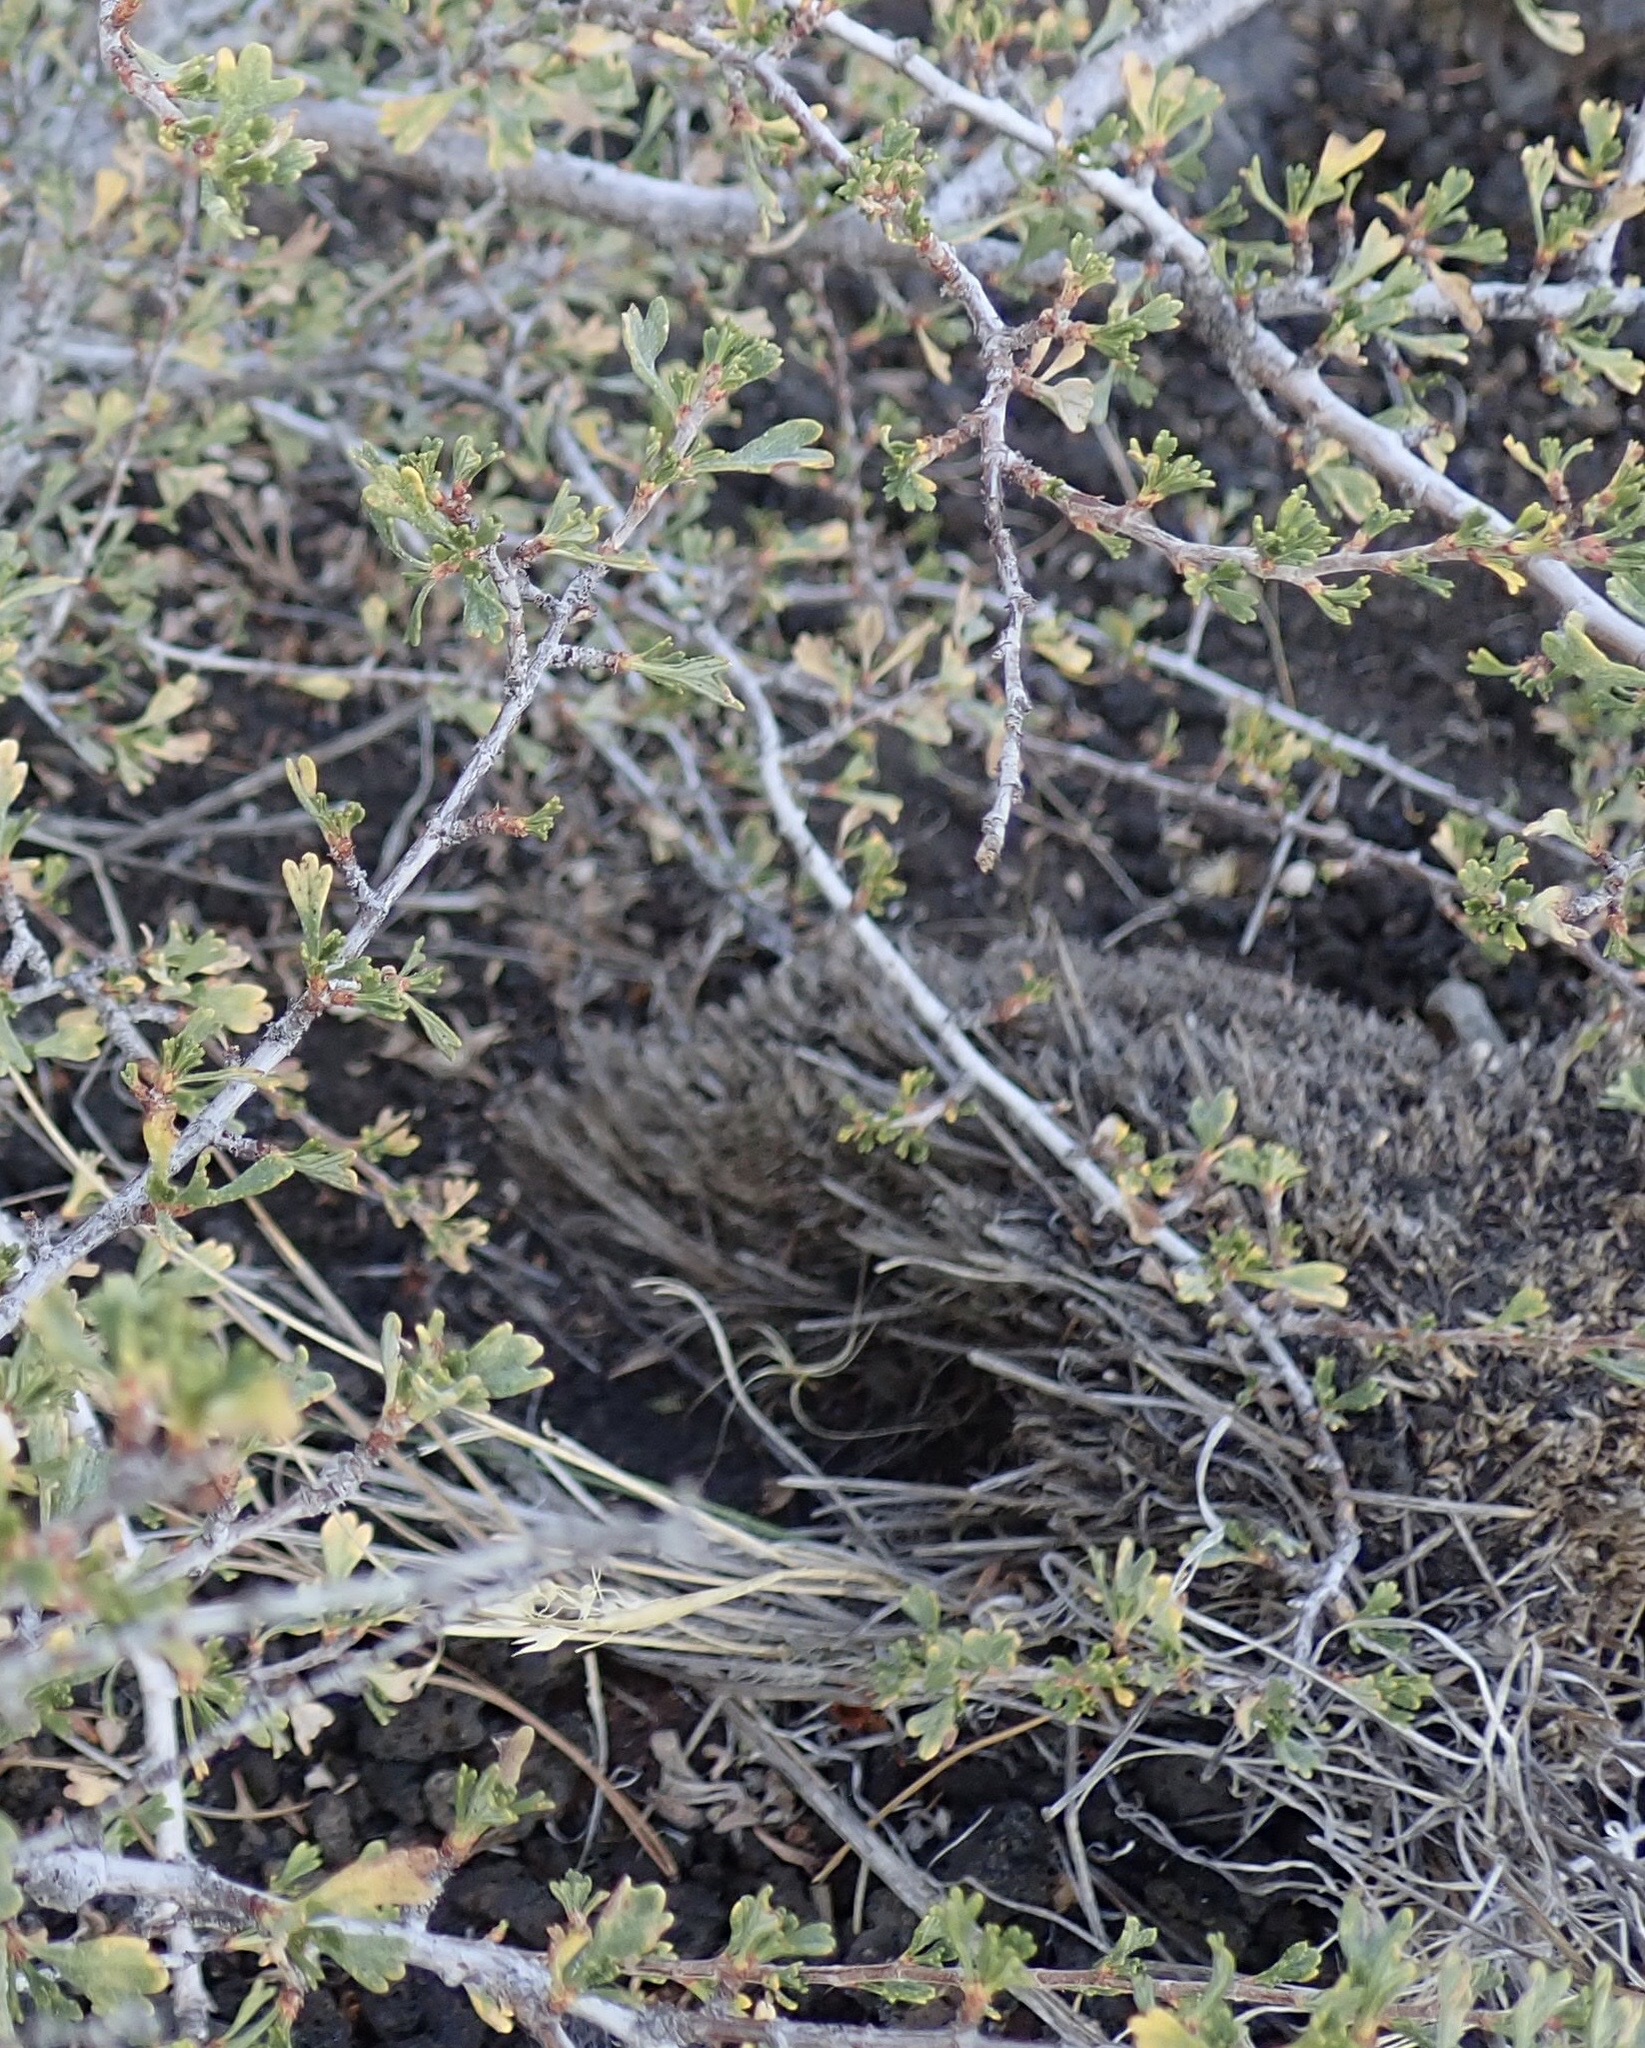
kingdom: Plantae
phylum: Tracheophyta
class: Magnoliopsida
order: Rosales
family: Rosaceae
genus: Purshia
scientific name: Purshia tridentata
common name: Antelope bitterbrush
